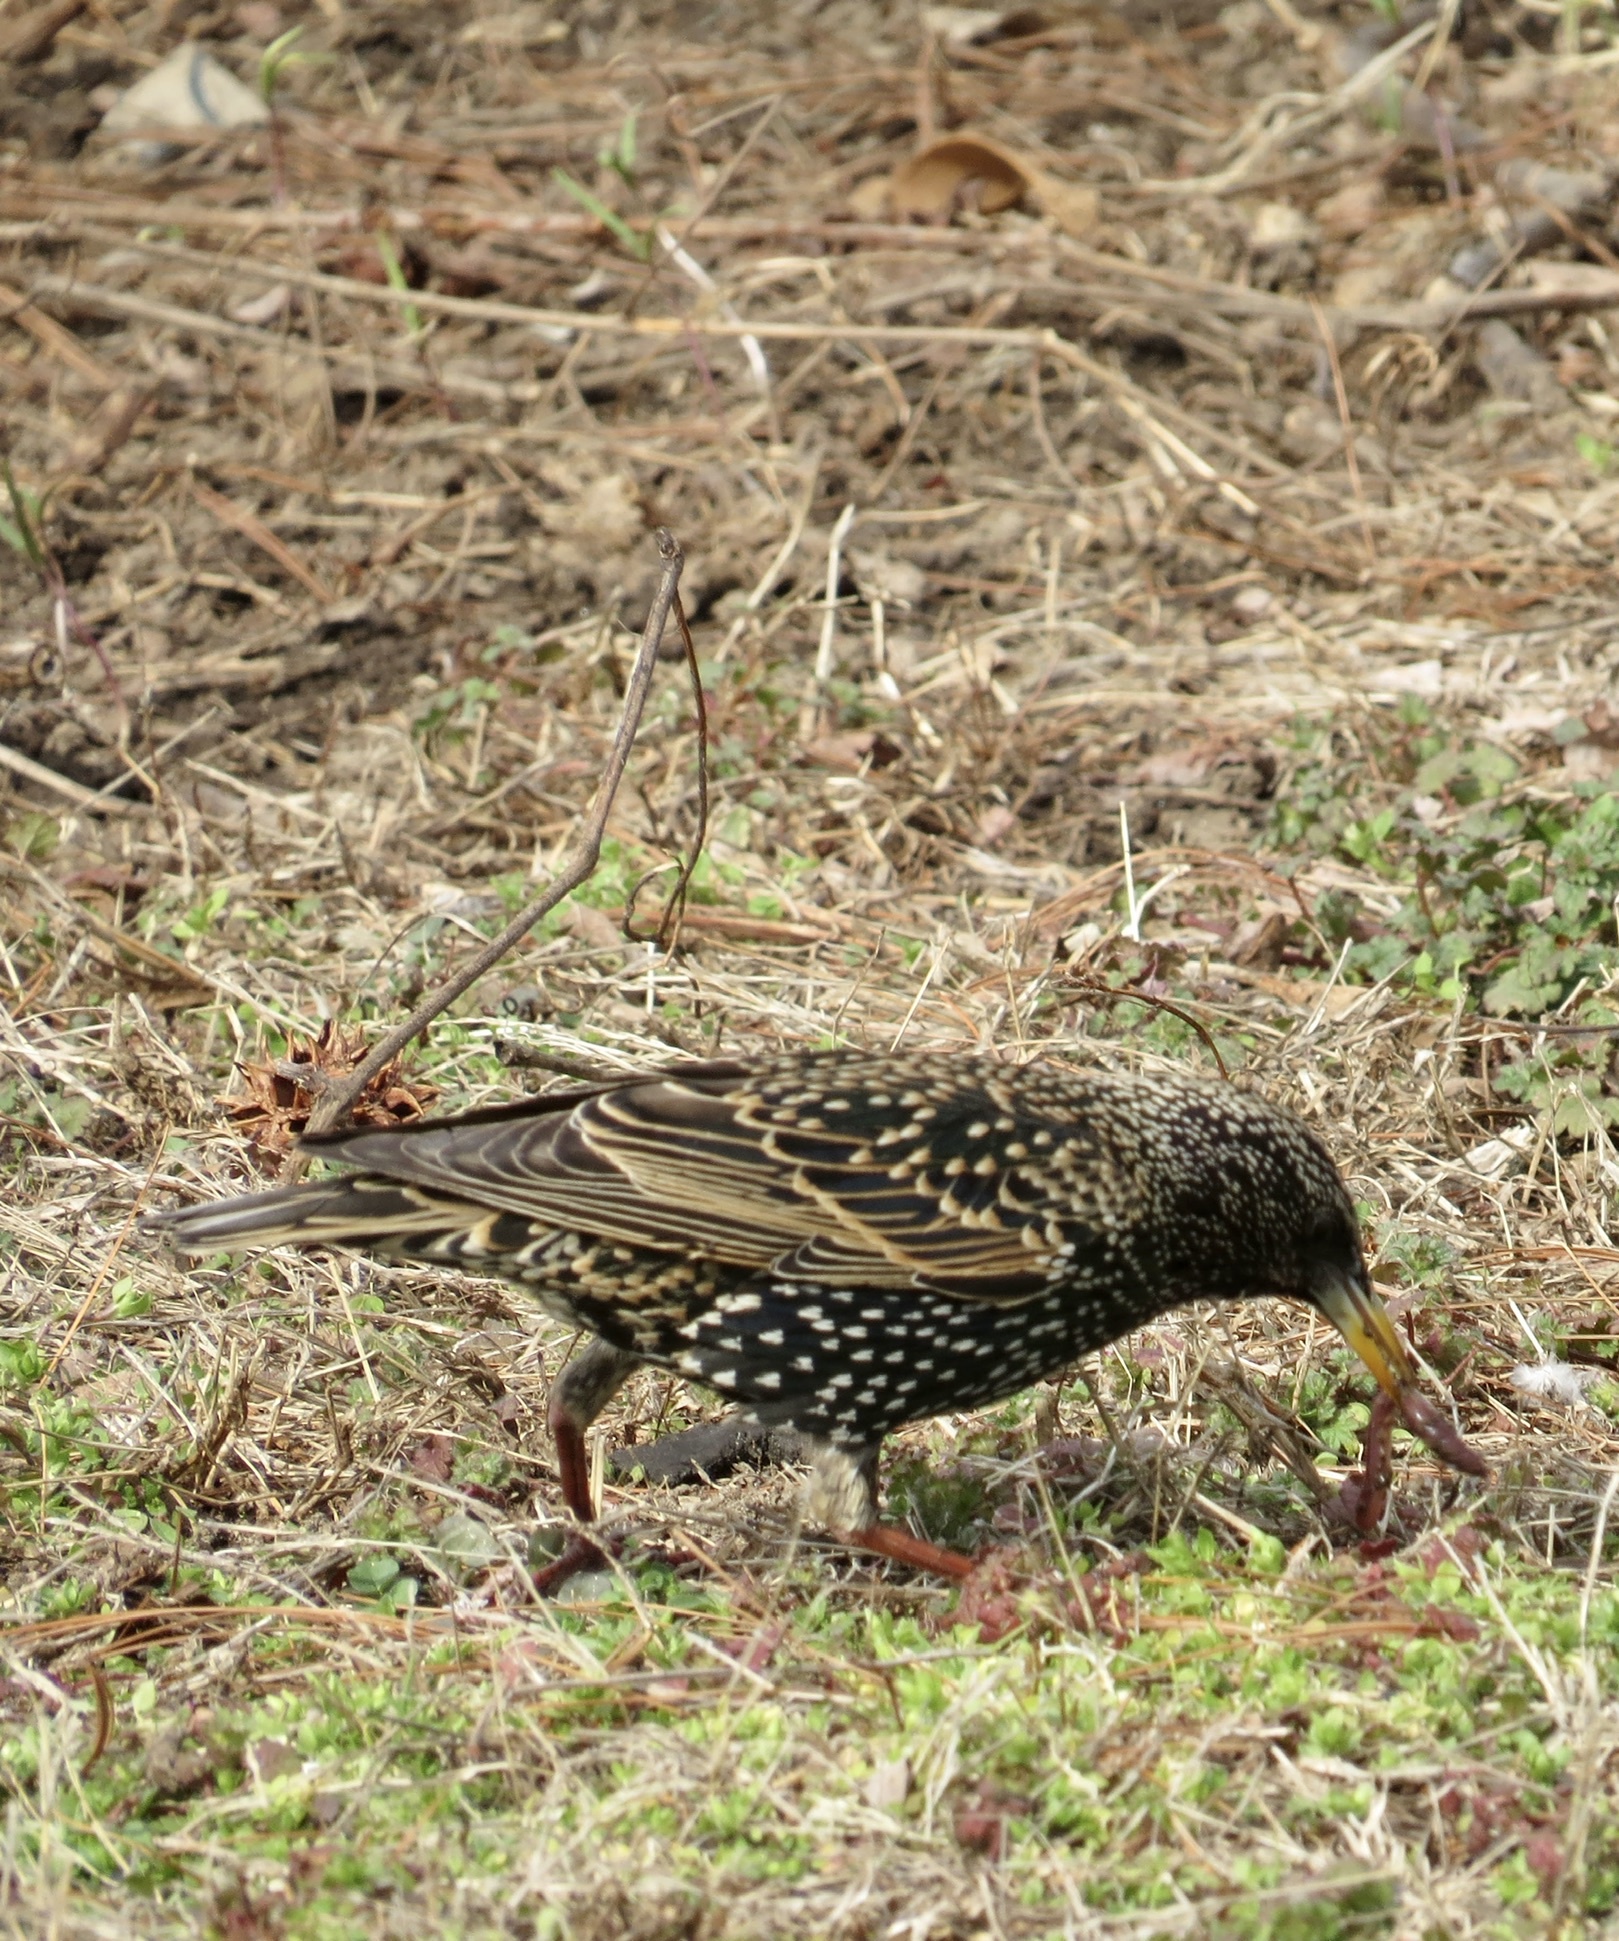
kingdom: Animalia
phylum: Chordata
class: Aves
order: Passeriformes
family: Sturnidae
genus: Sturnus
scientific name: Sturnus vulgaris
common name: Common starling
